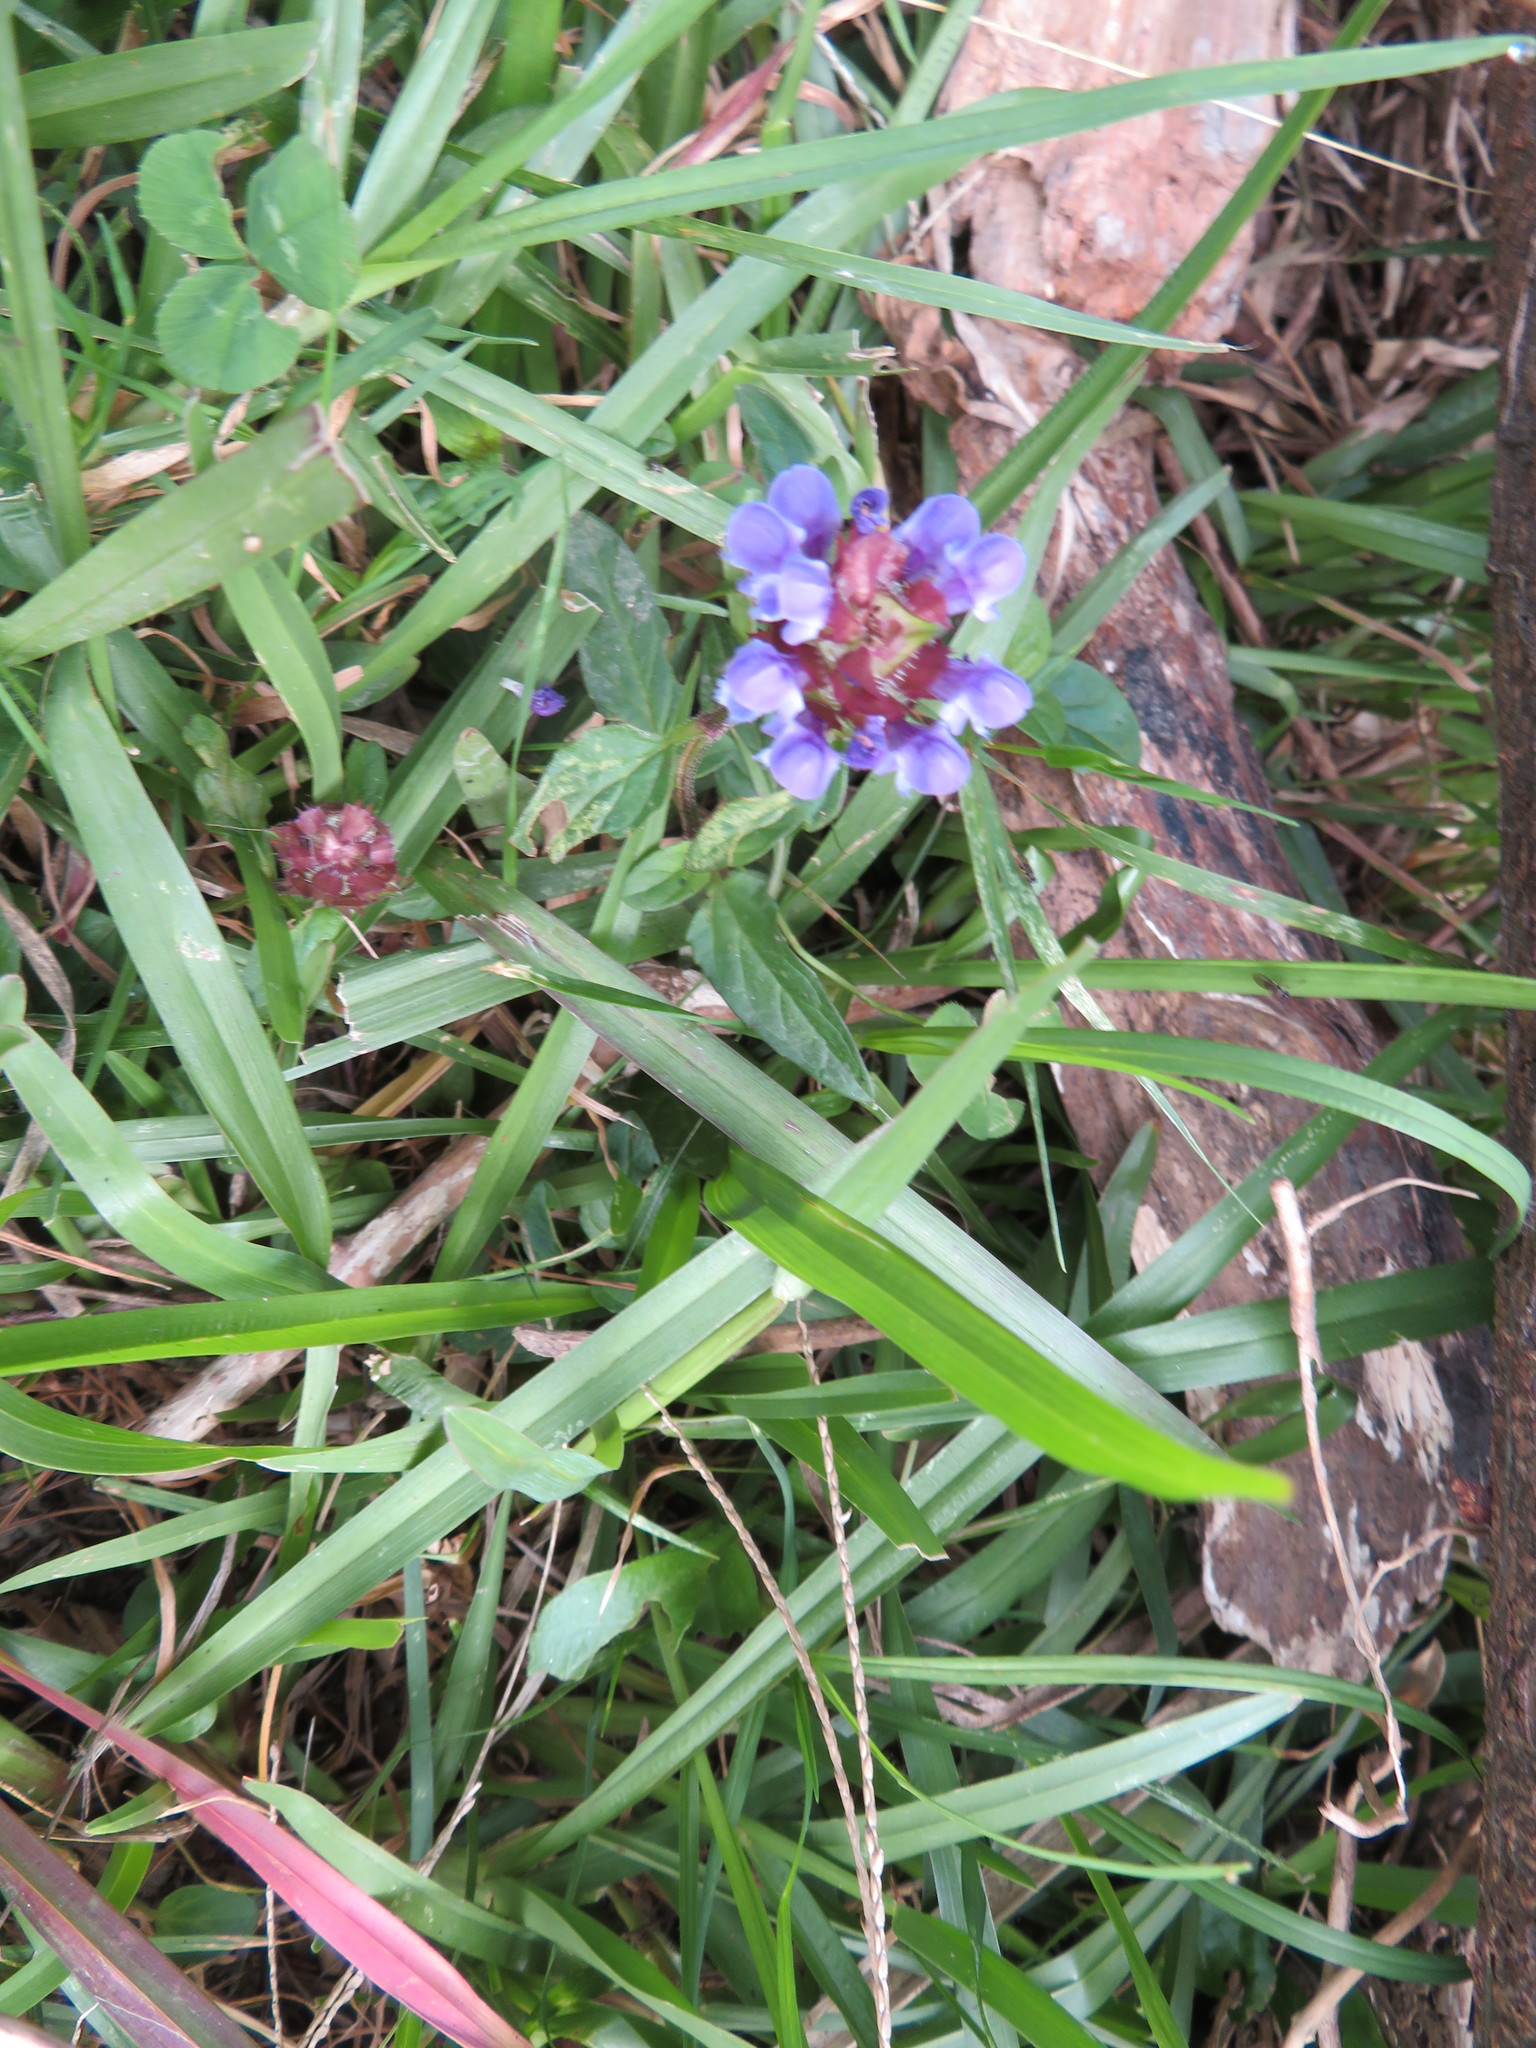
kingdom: Plantae
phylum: Tracheophyta
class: Magnoliopsida
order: Lamiales
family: Lamiaceae
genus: Prunella
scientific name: Prunella vulgaris
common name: Heal-all
